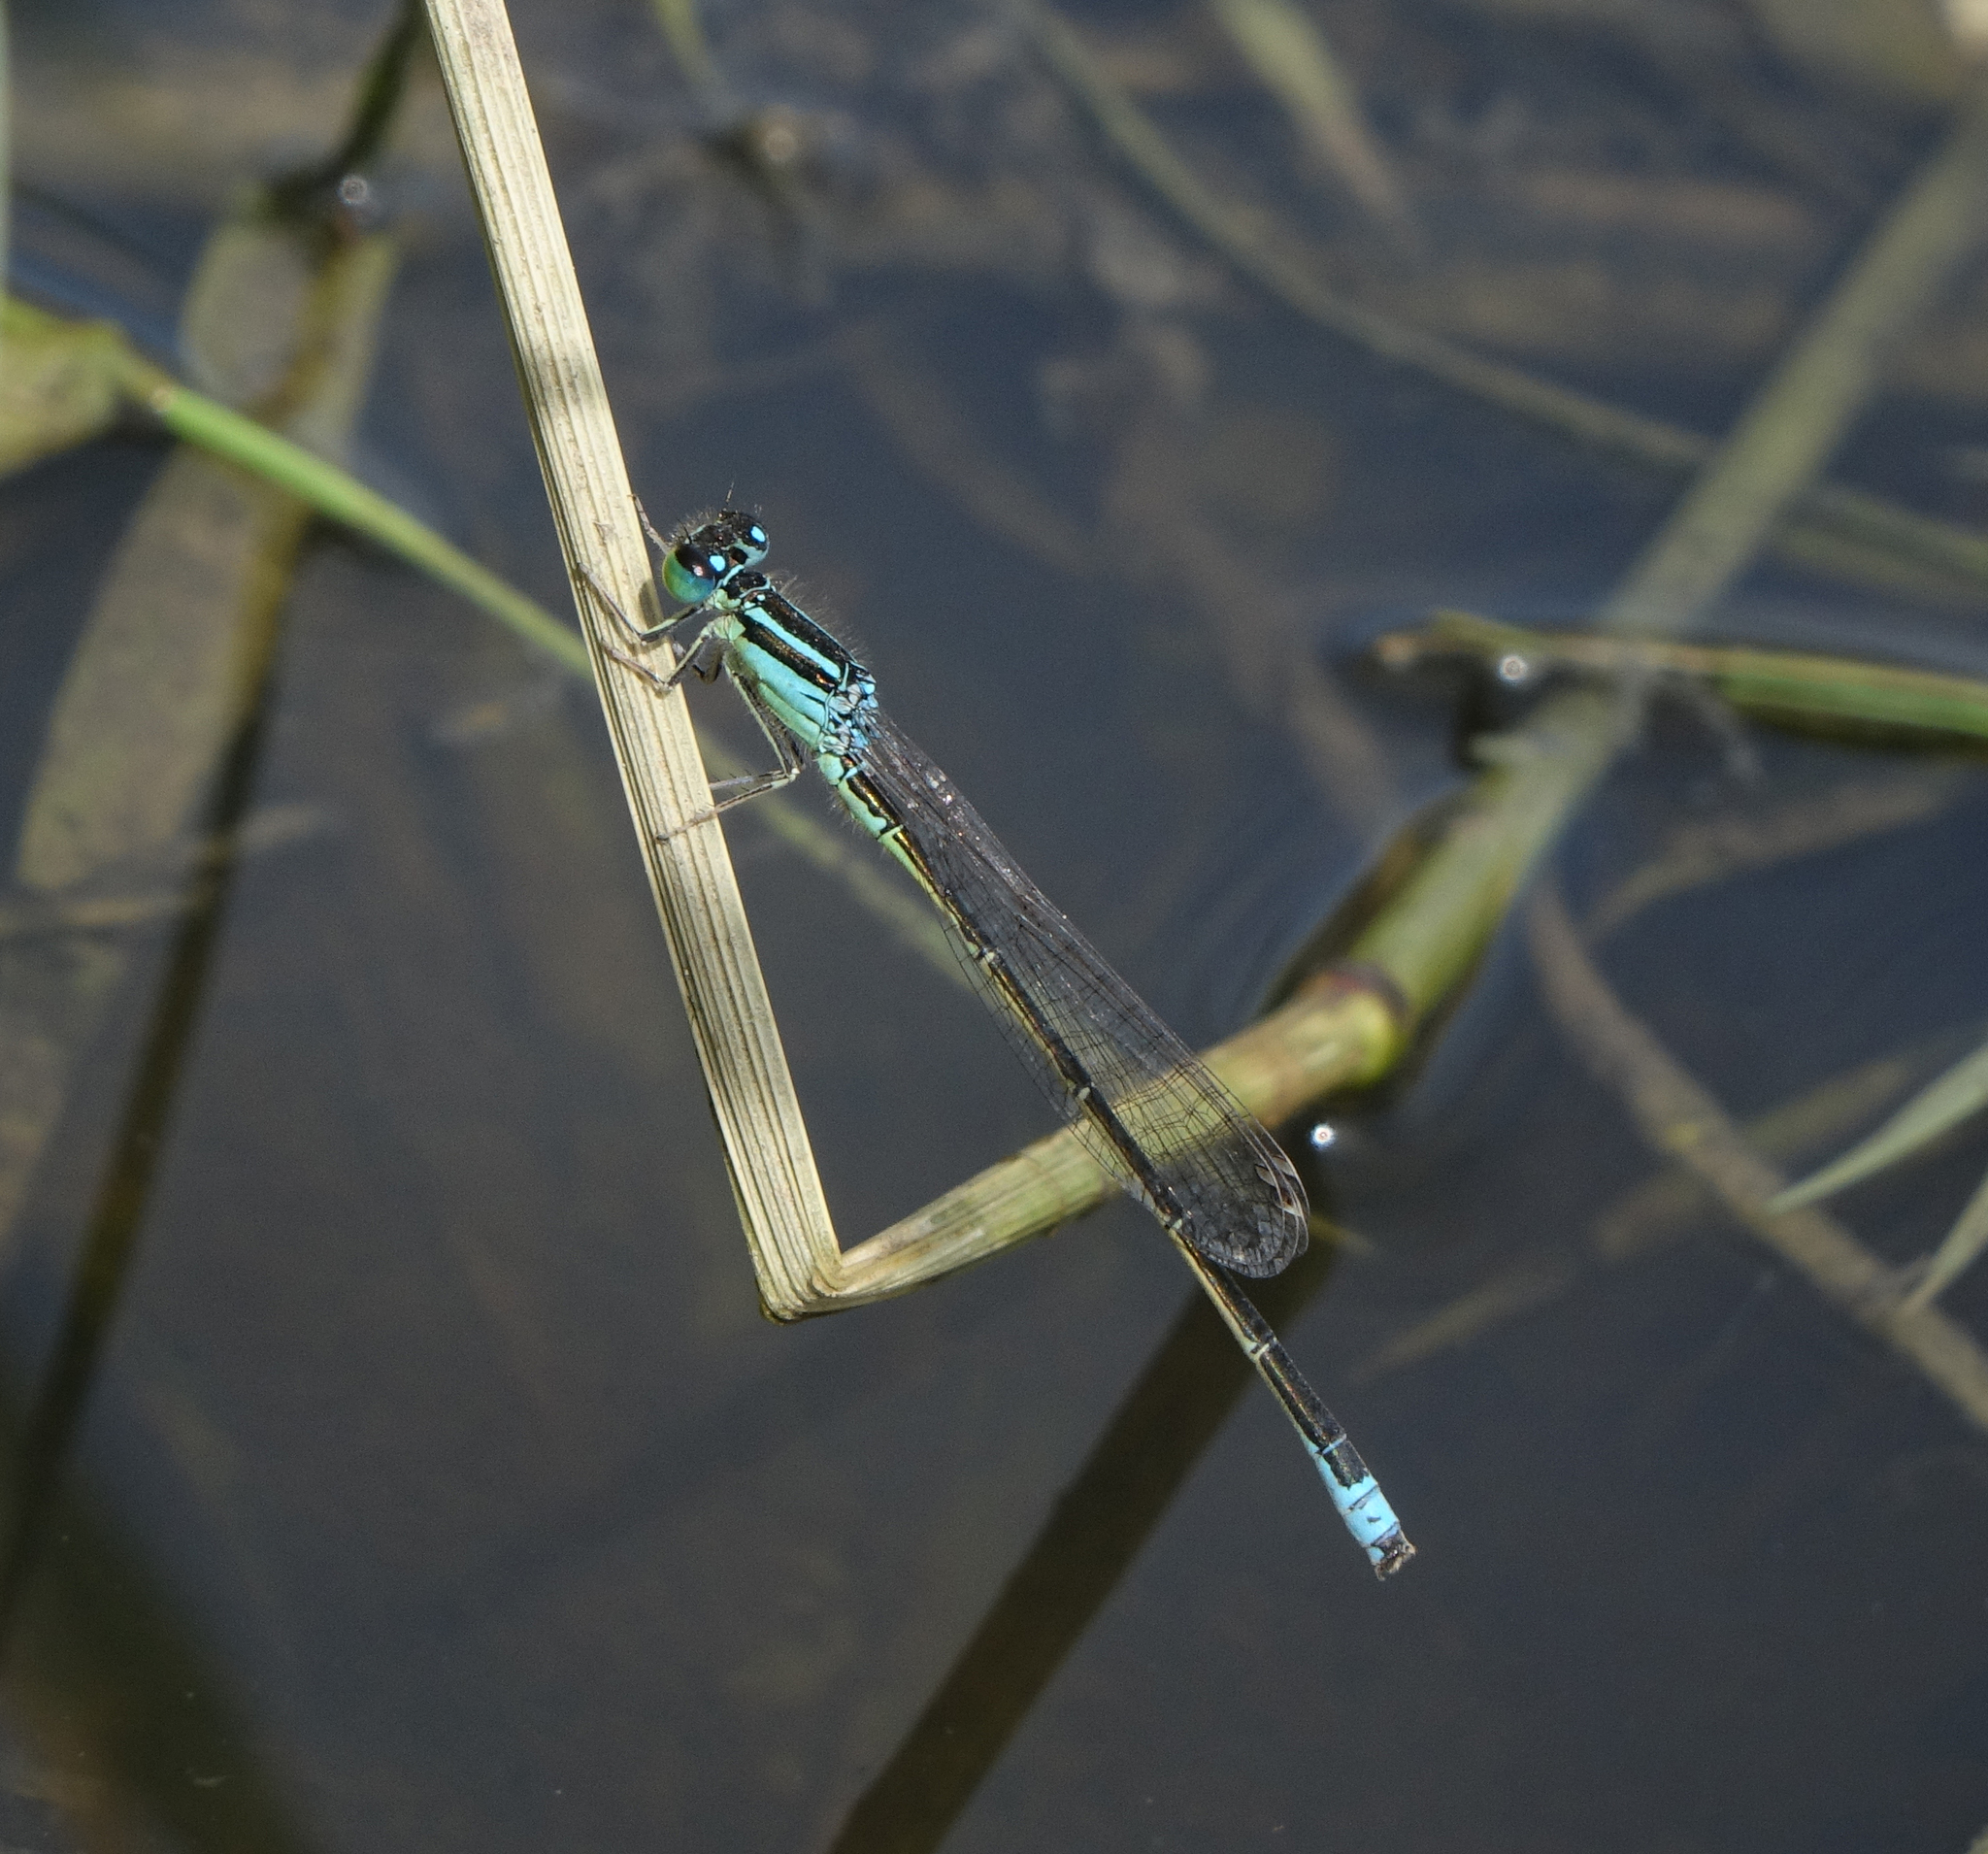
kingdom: Animalia
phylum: Arthropoda
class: Insecta
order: Odonata
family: Coenagrionidae
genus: Ischnura
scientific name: Ischnura pumilio
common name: Scarce blue-tailed damselfly
